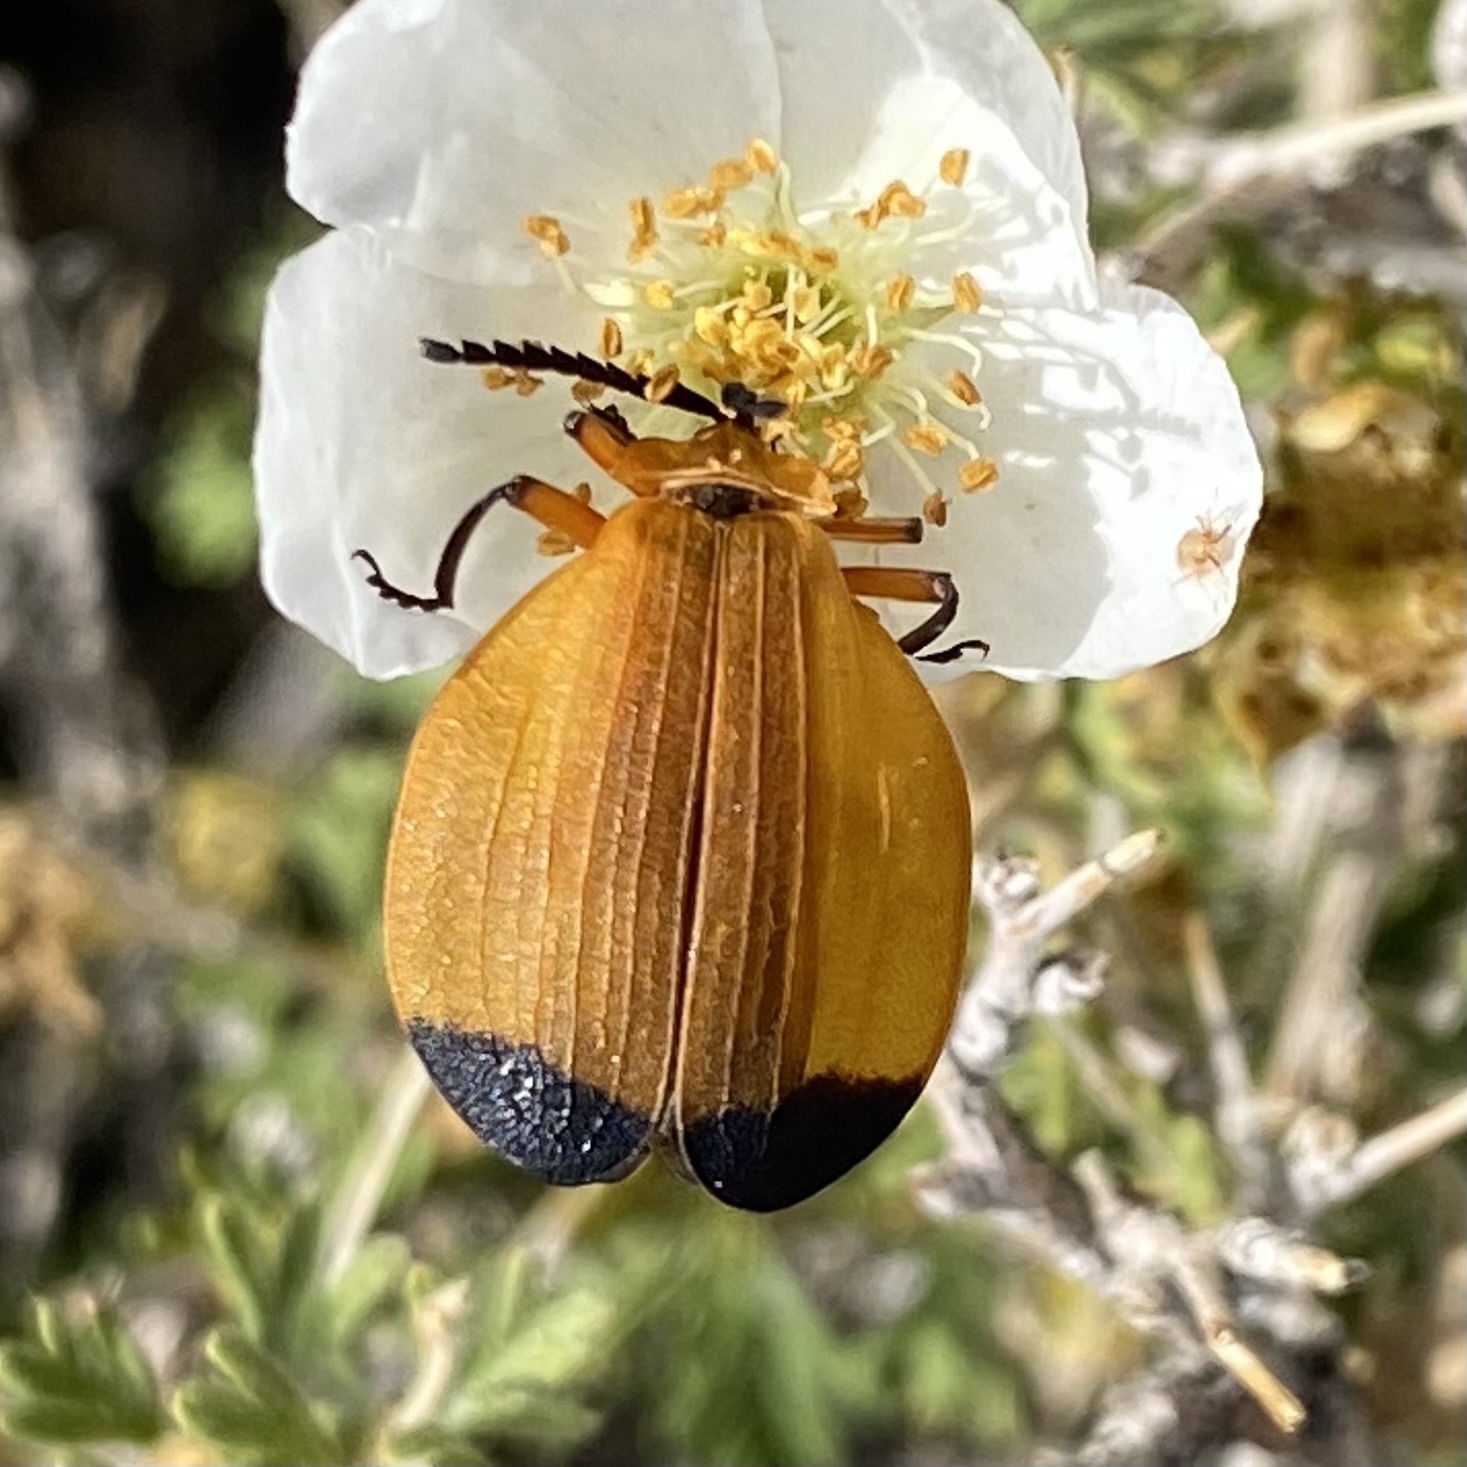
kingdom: Animalia
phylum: Arthropoda
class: Insecta
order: Coleoptera
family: Lycidae
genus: Lycus
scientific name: Lycus arizonensis
